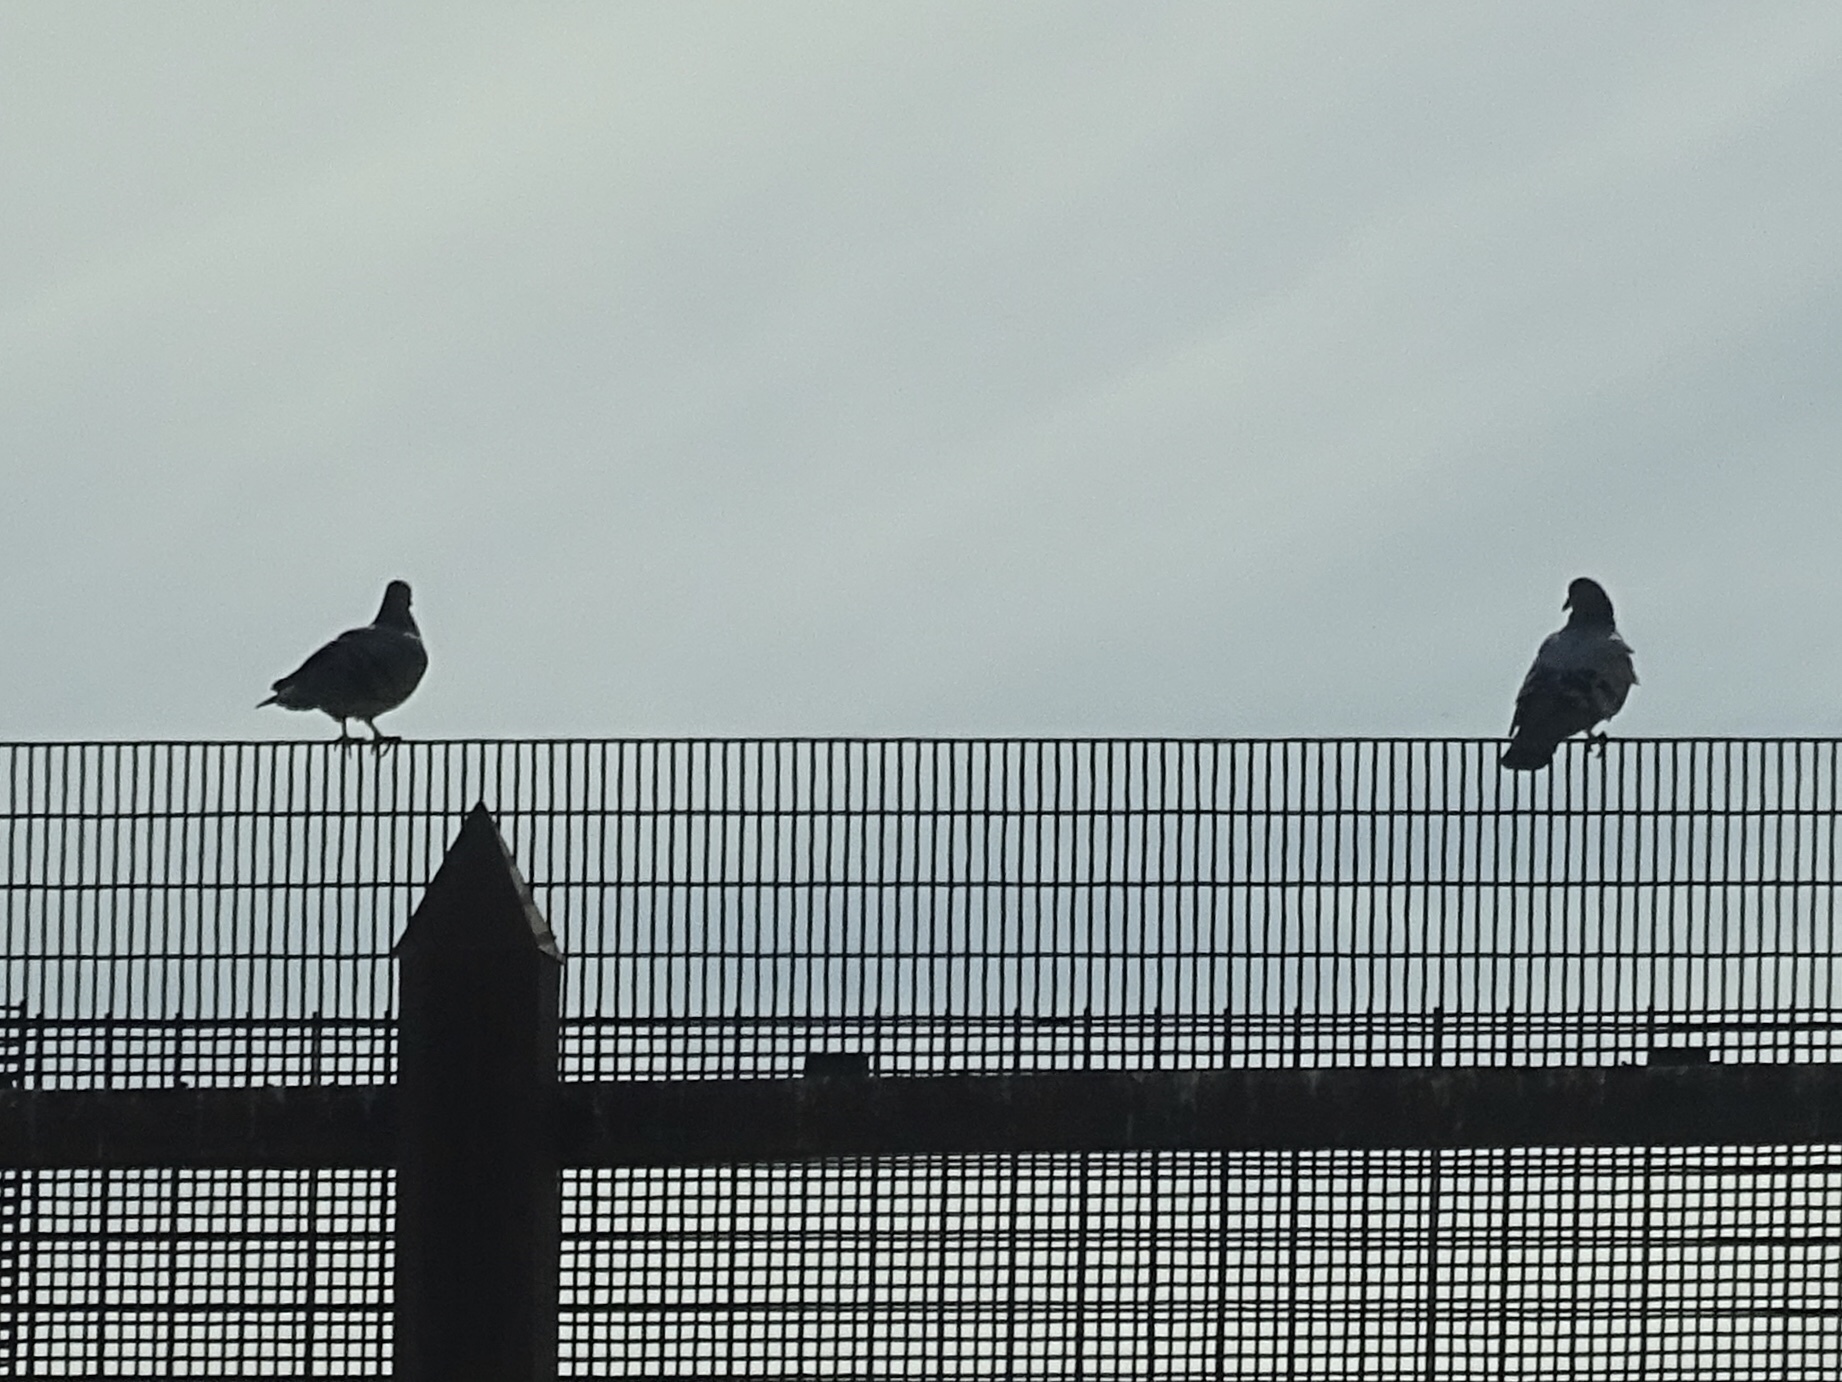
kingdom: Animalia
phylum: Chordata
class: Aves
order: Columbiformes
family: Columbidae
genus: Columba
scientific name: Columba livia
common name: Rock pigeon
